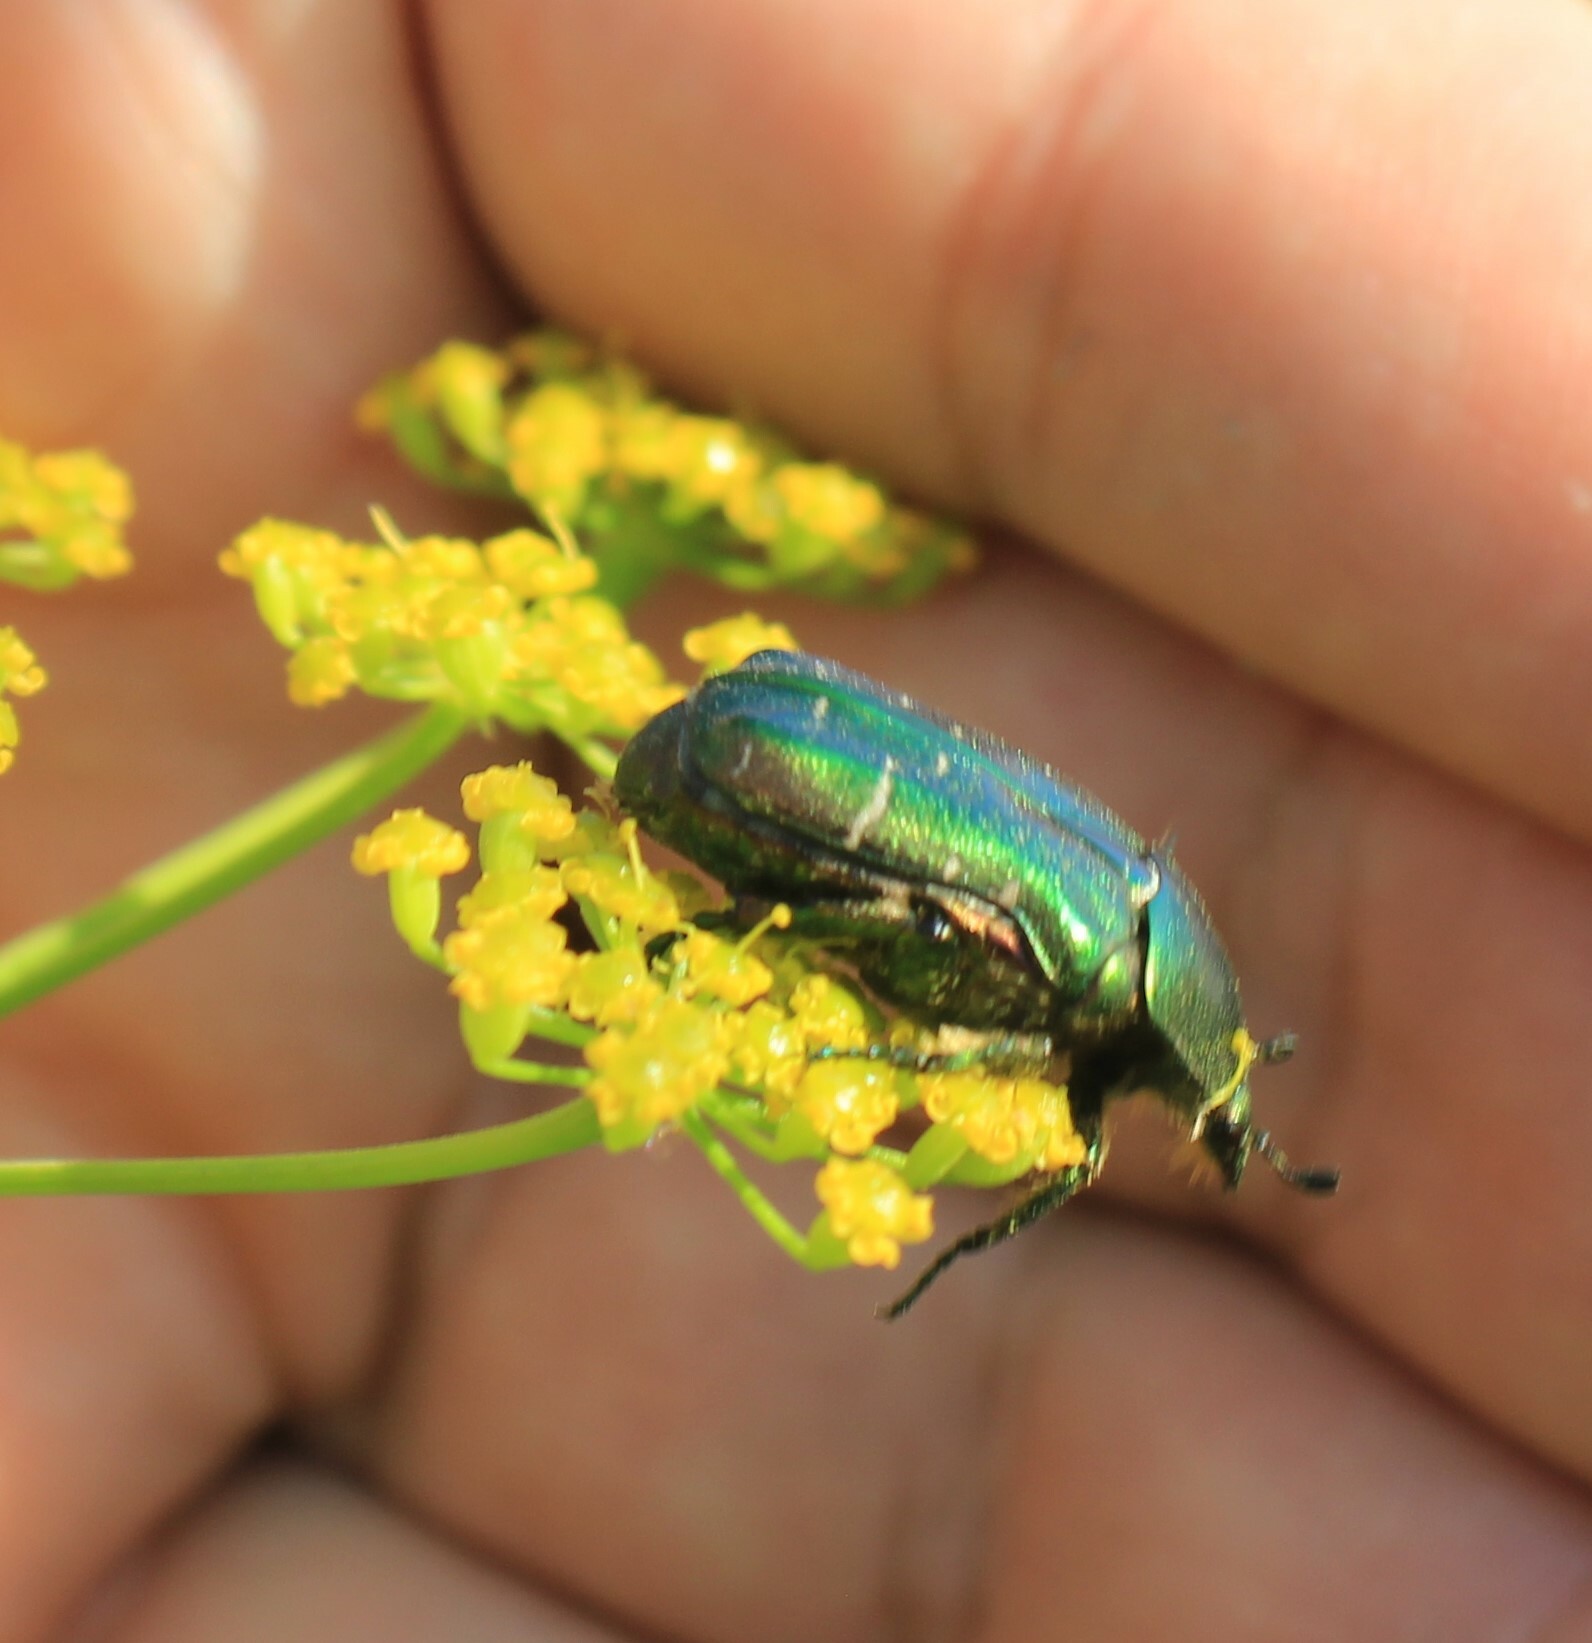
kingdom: Animalia
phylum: Arthropoda
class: Insecta
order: Coleoptera
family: Scarabaeidae
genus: Cetonia
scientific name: Cetonia aurata
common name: Rose chafer
